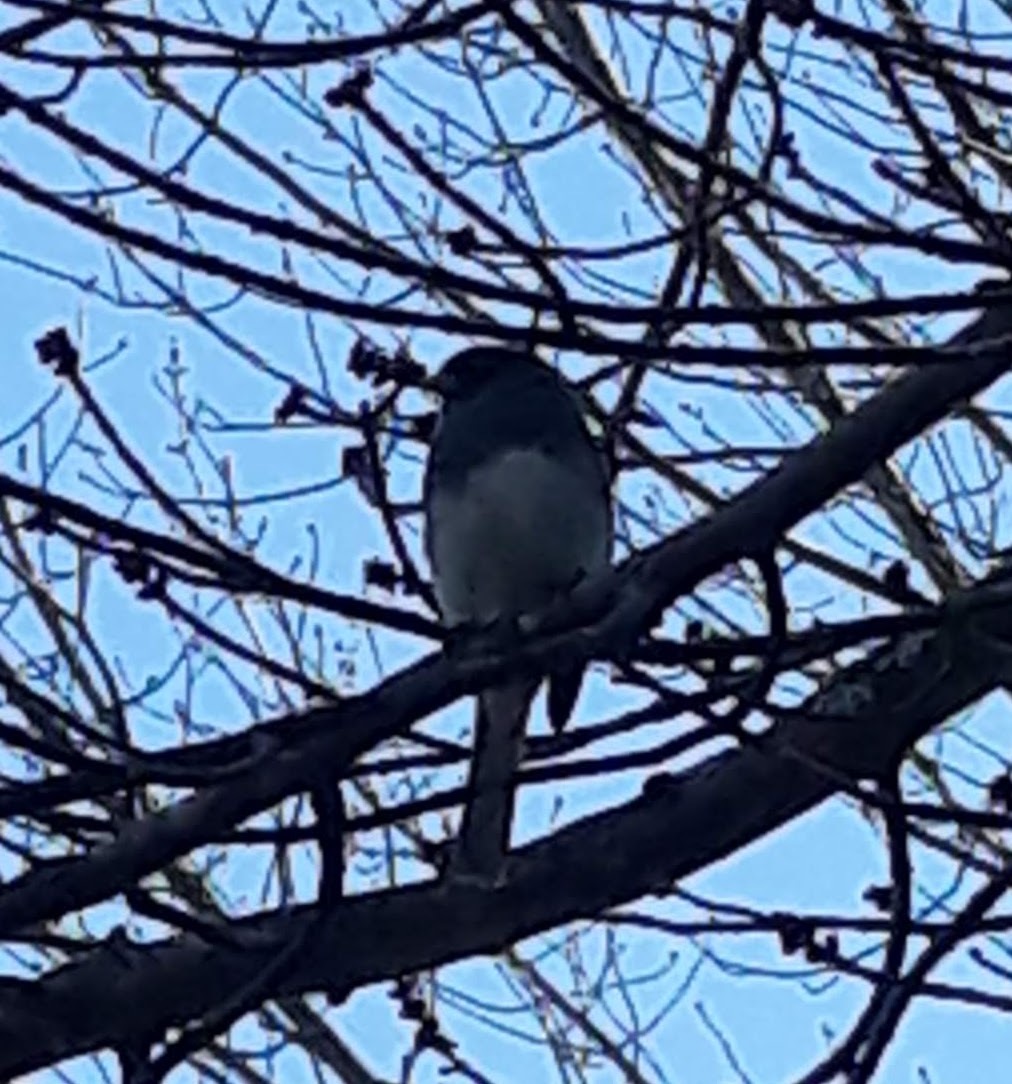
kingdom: Animalia
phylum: Chordata
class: Aves
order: Passeriformes
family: Passerellidae
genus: Junco
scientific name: Junco hyemalis
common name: Dark-eyed junco
